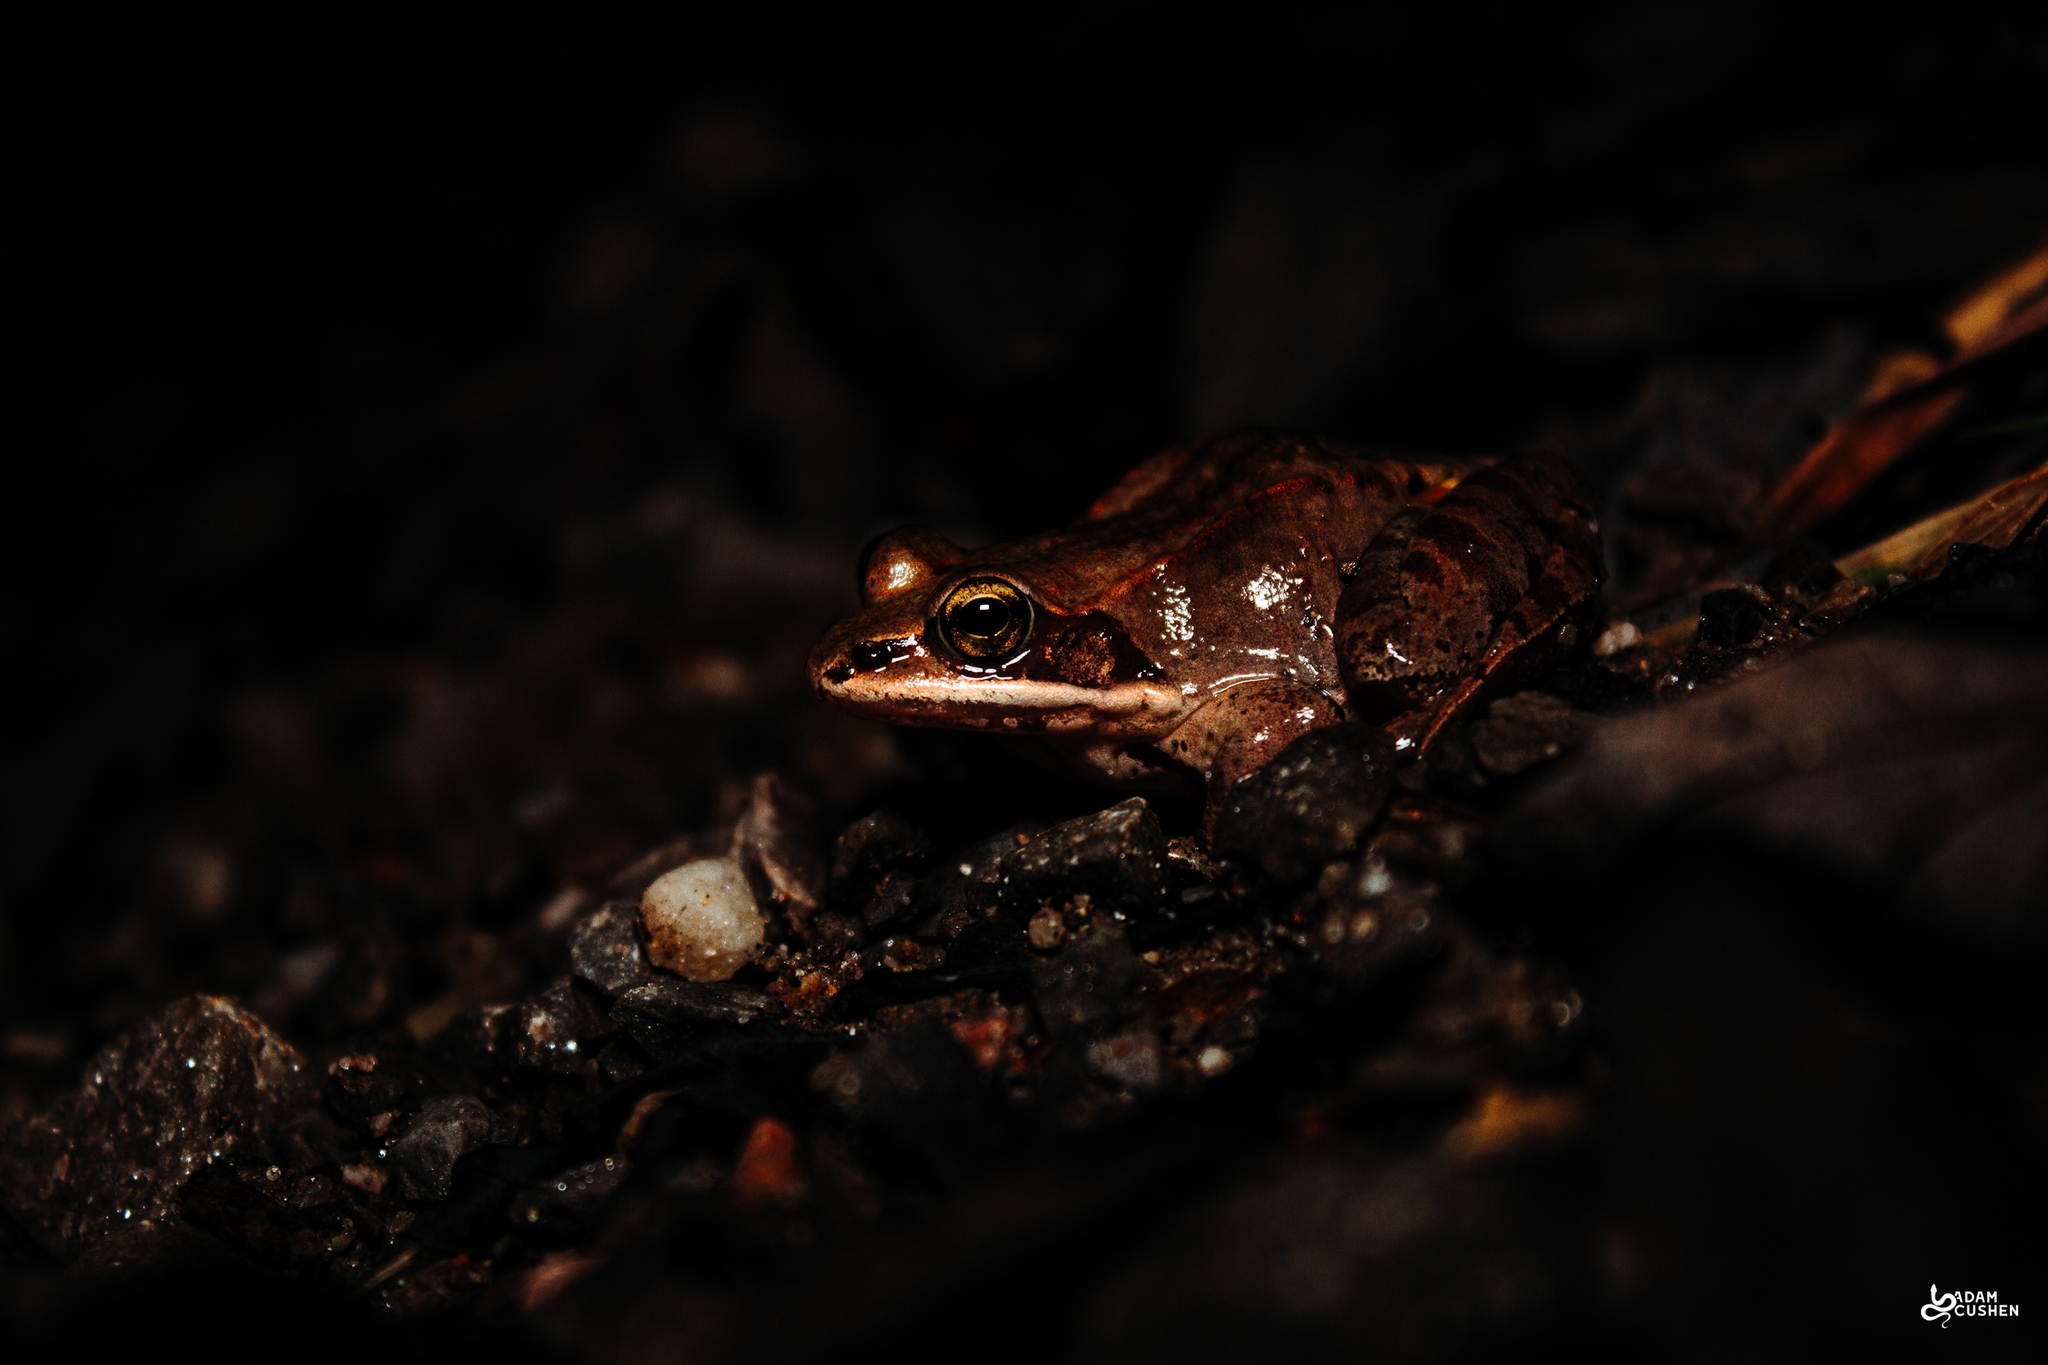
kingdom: Animalia
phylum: Chordata
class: Amphibia
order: Anura
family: Ranidae
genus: Lithobates
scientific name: Lithobates sylvaticus
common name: Wood frog
